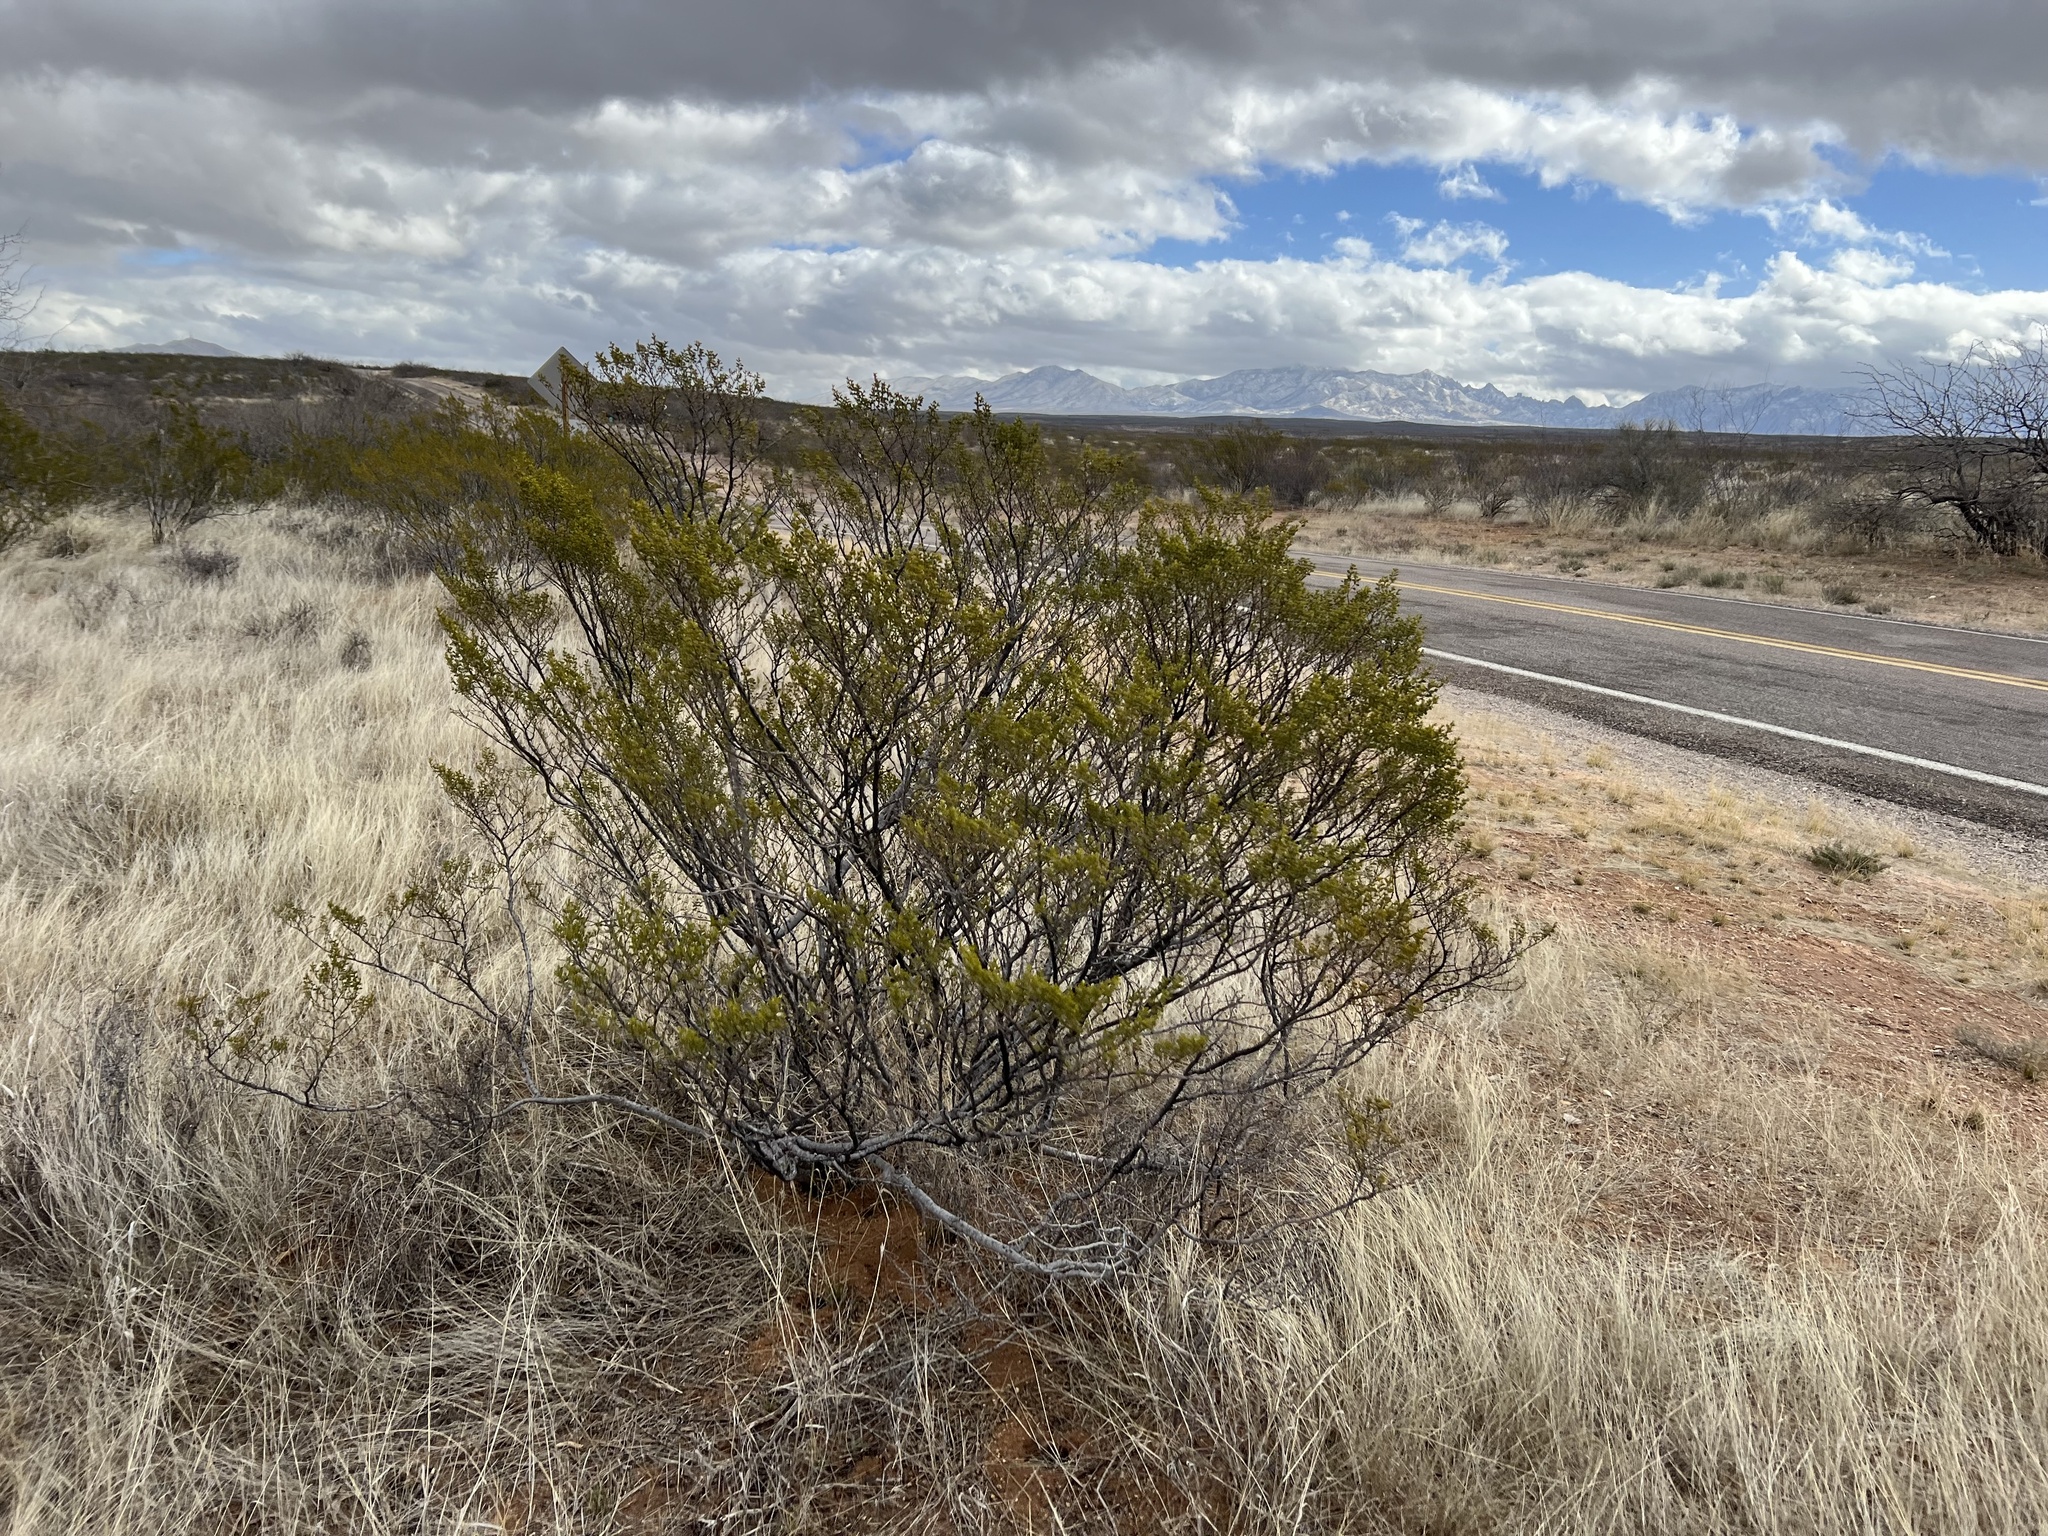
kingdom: Plantae
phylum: Tracheophyta
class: Magnoliopsida
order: Zygophyllales
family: Zygophyllaceae
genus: Larrea
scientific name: Larrea tridentata
